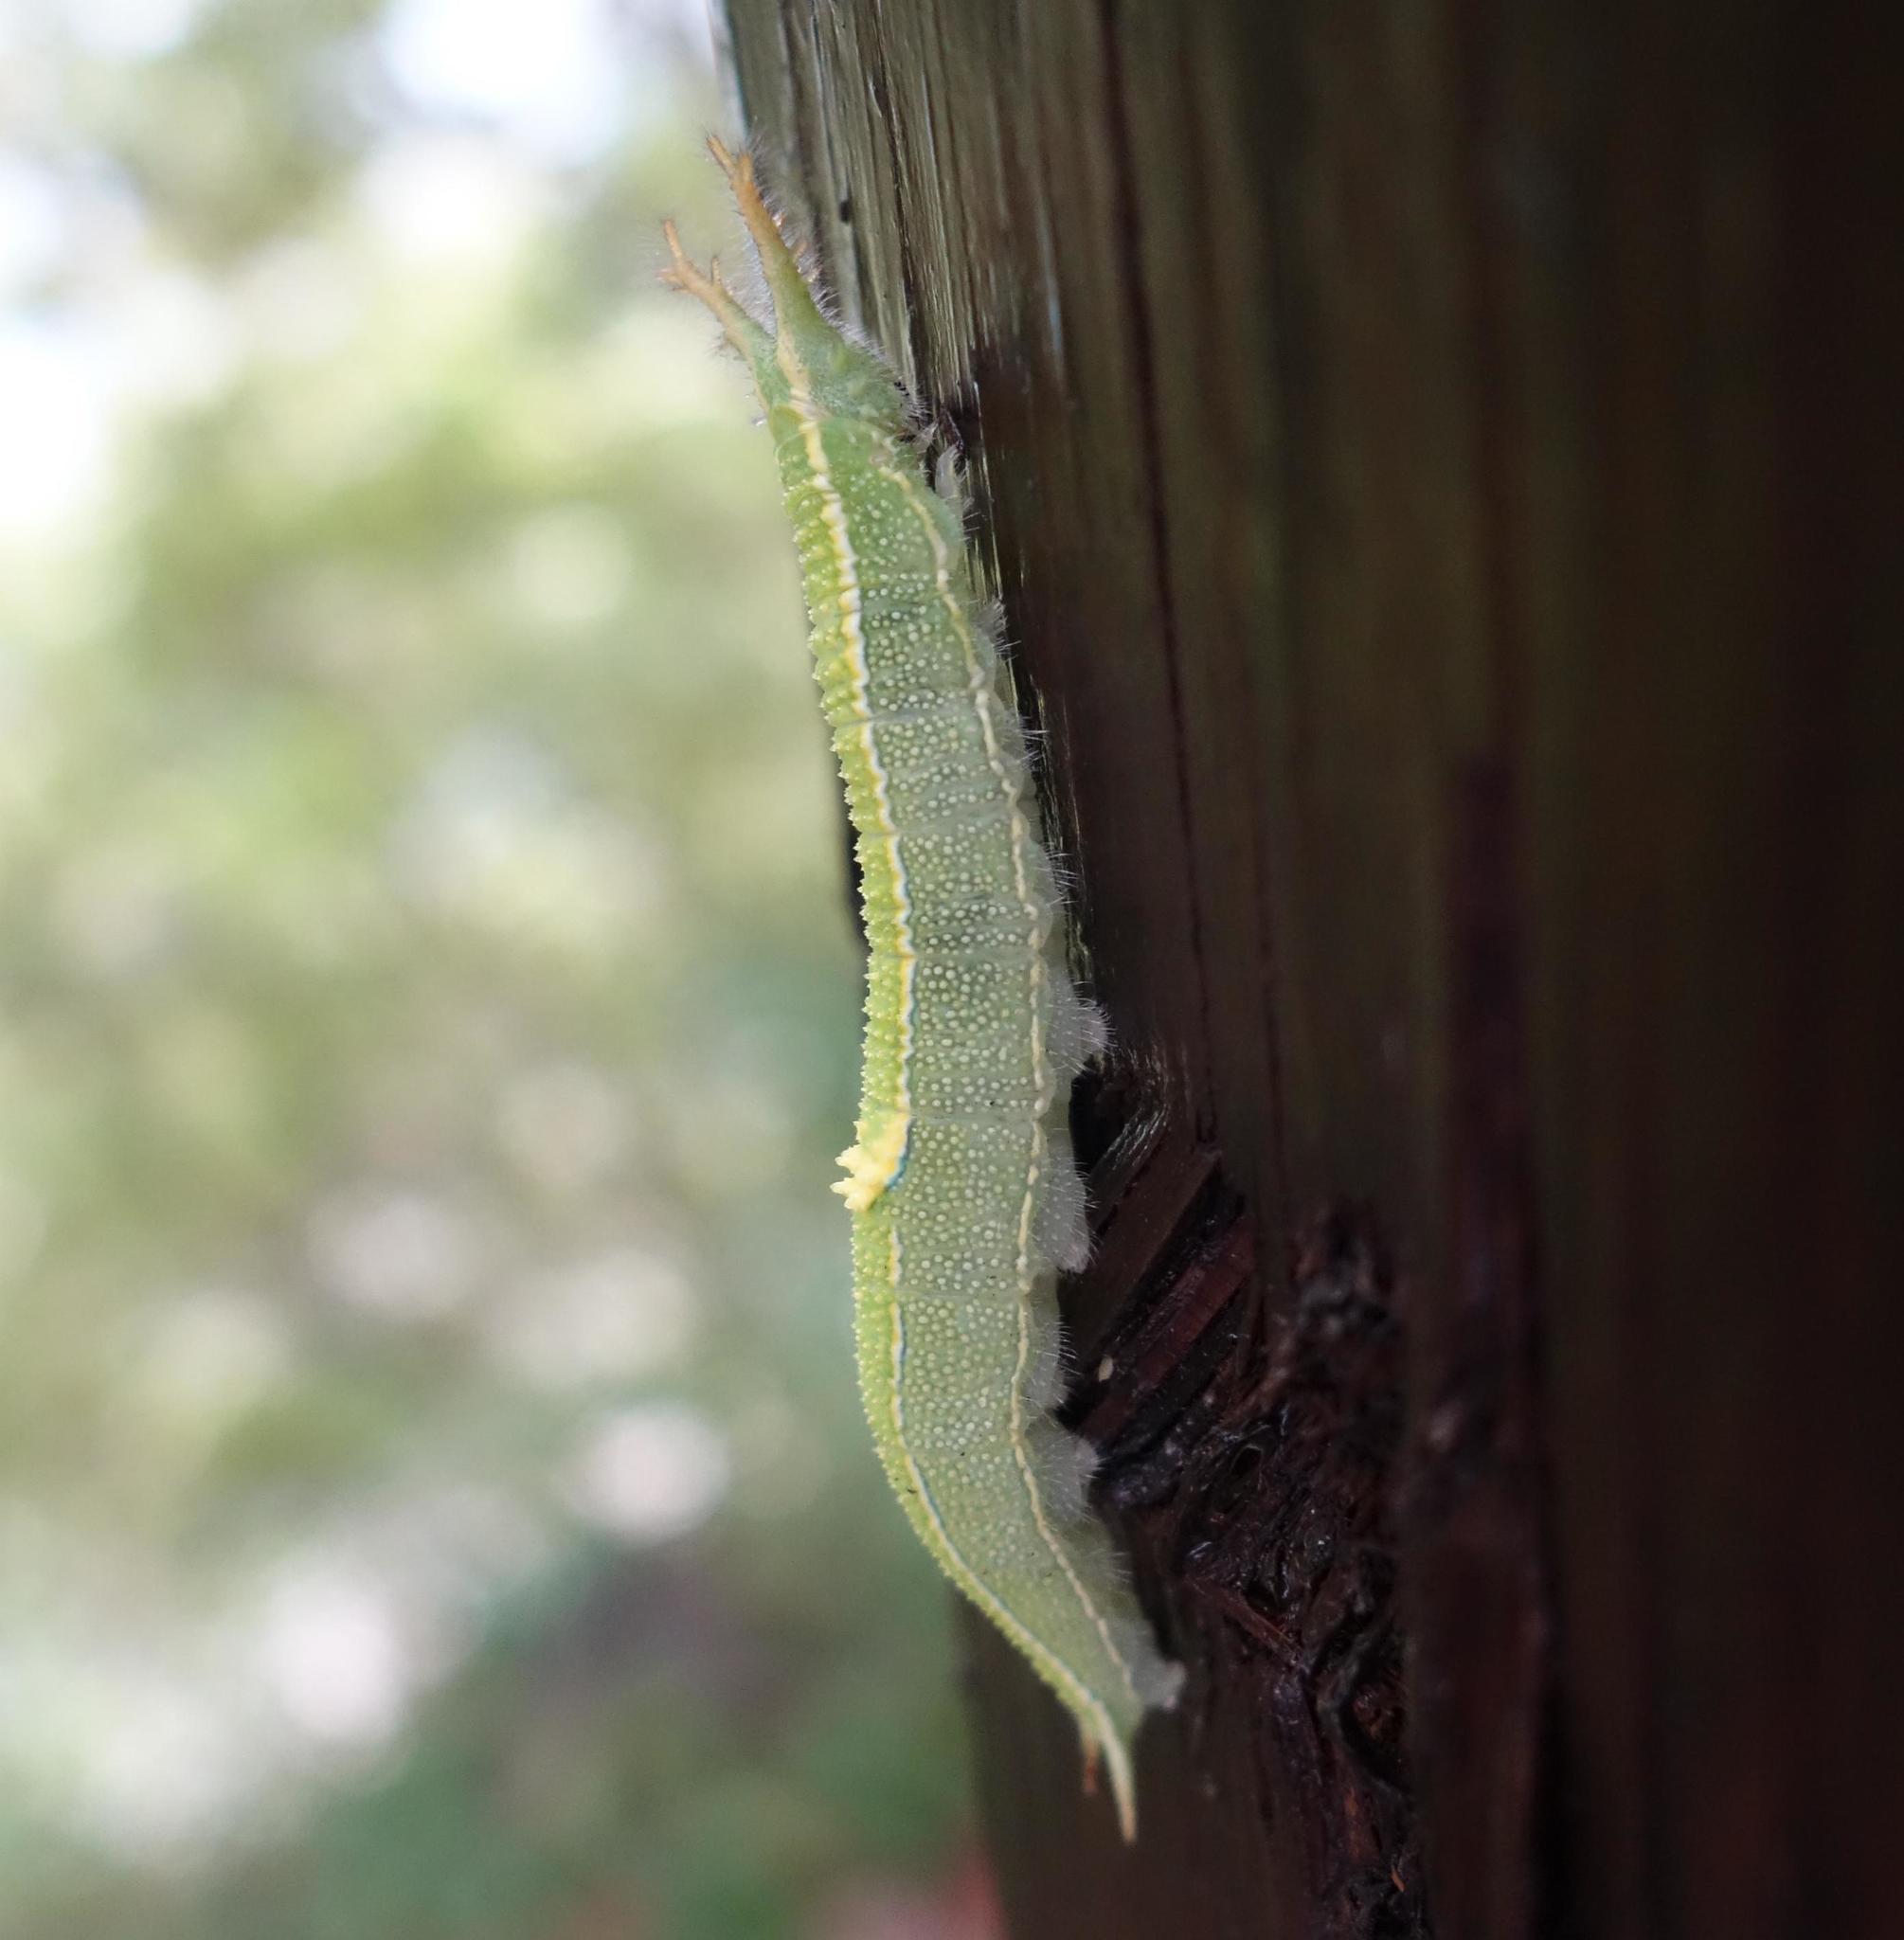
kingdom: Animalia
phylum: Arthropoda
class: Insecta
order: Lepidoptera
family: Nymphalidae
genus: Apatura
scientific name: Apatura Chitoria chrysolora
